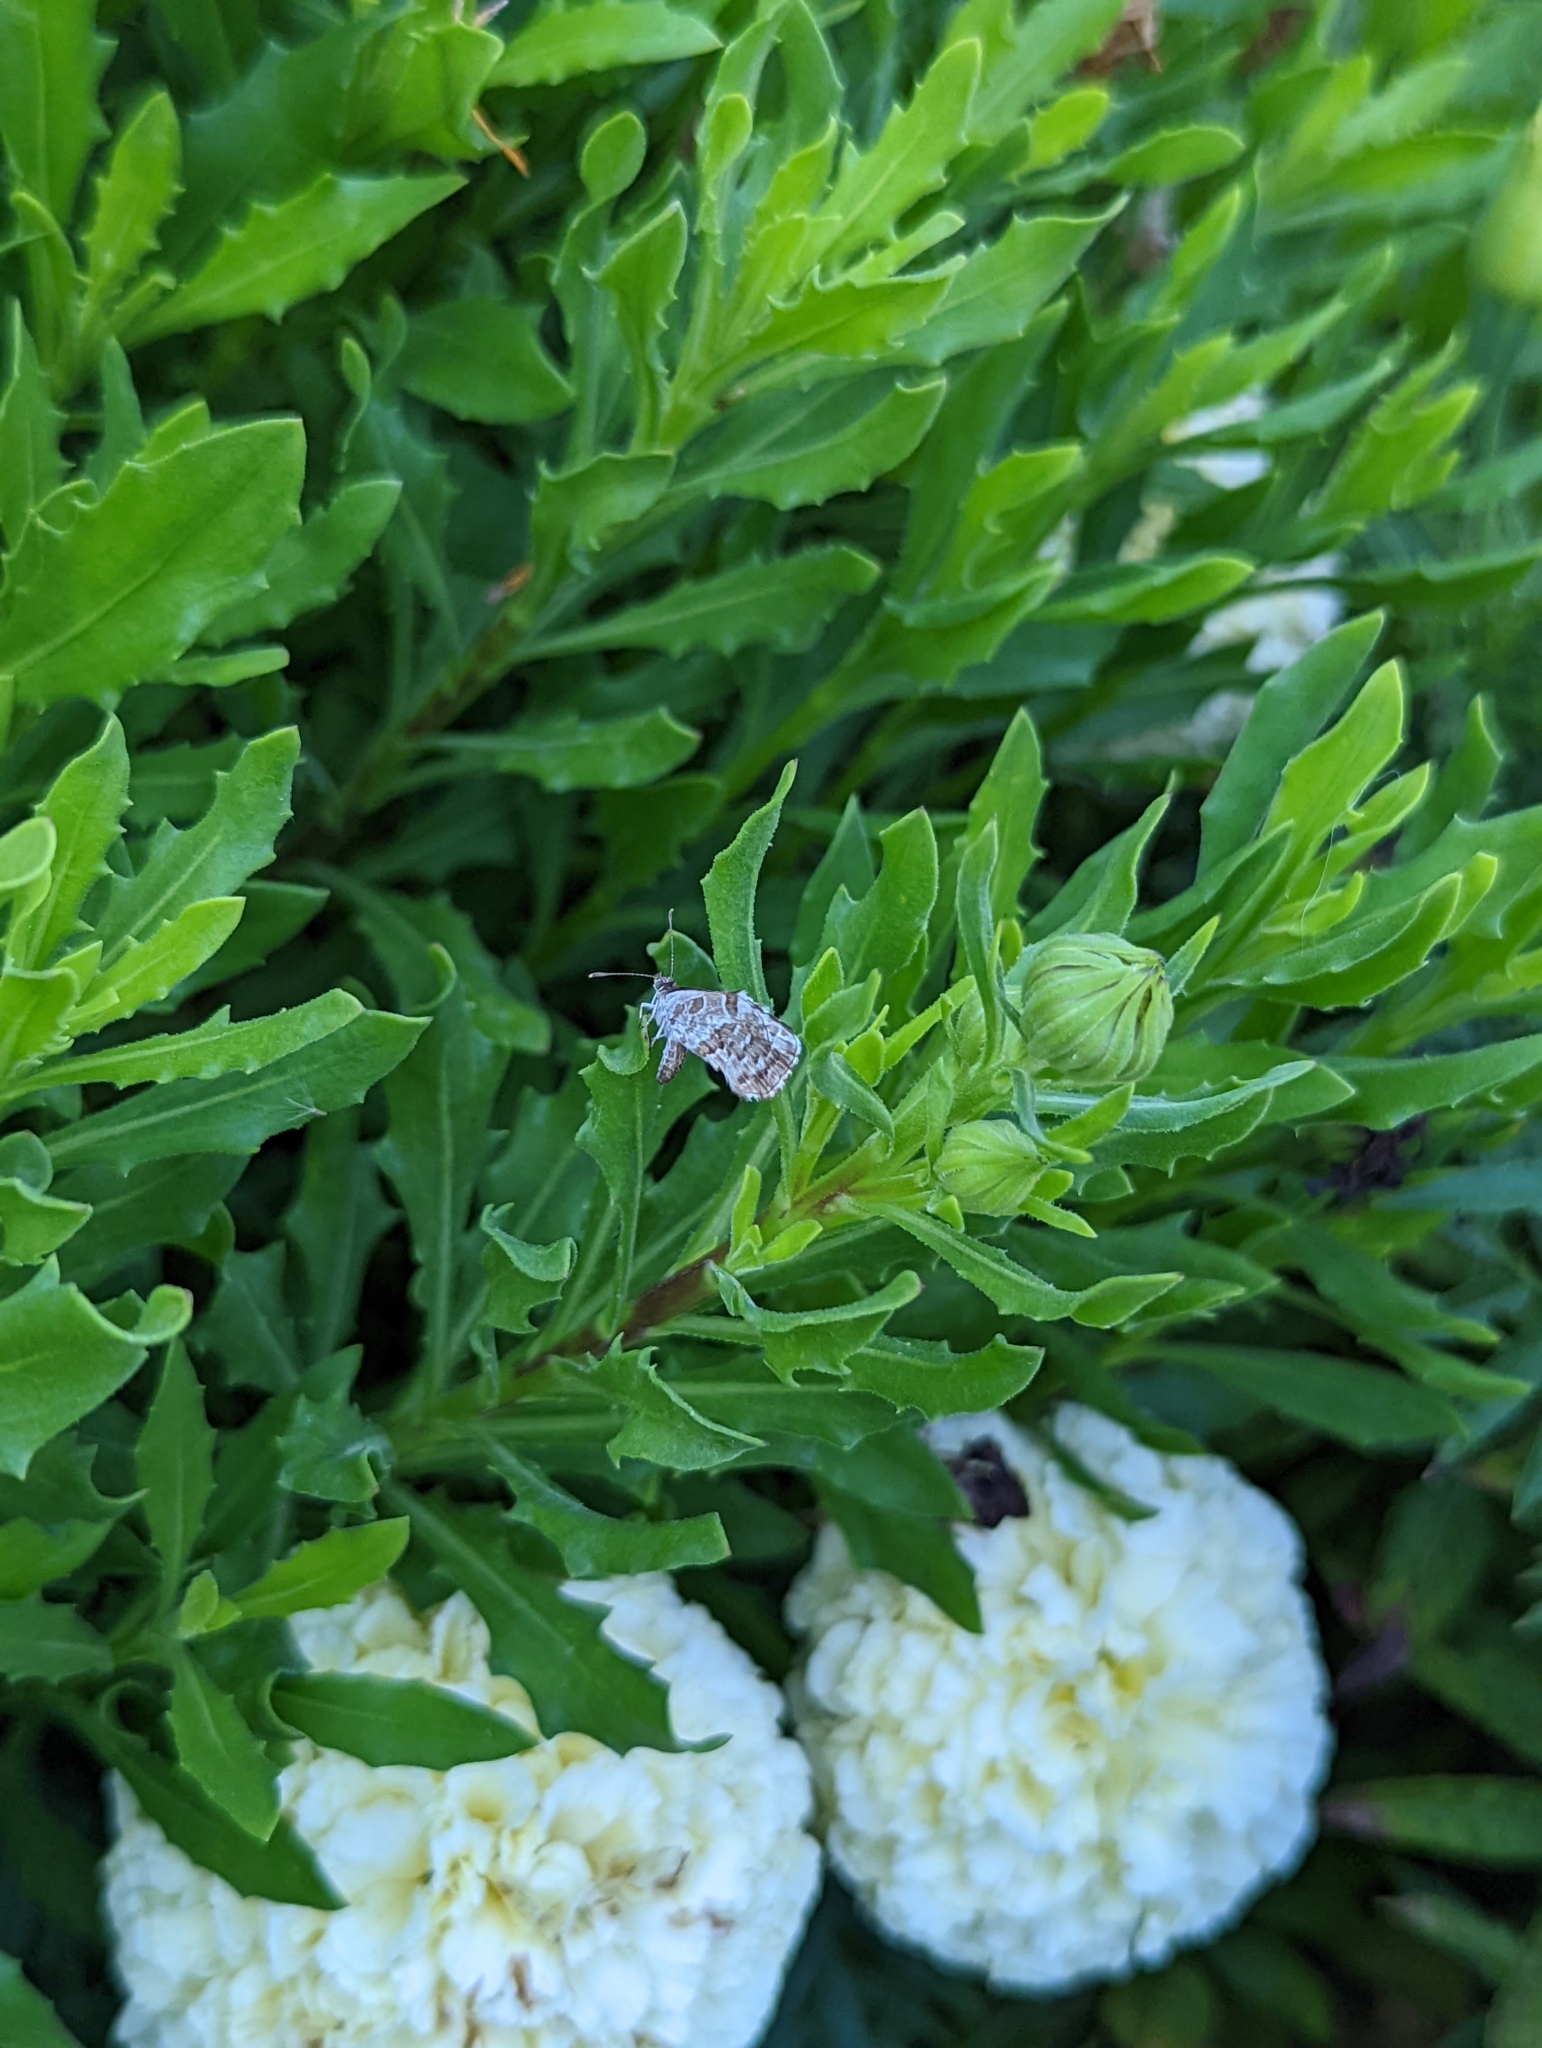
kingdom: Animalia
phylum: Arthropoda
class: Insecta
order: Lepidoptera
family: Lycaenidae
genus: Cacyreus
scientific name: Cacyreus marshalli
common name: Geranium bronze
